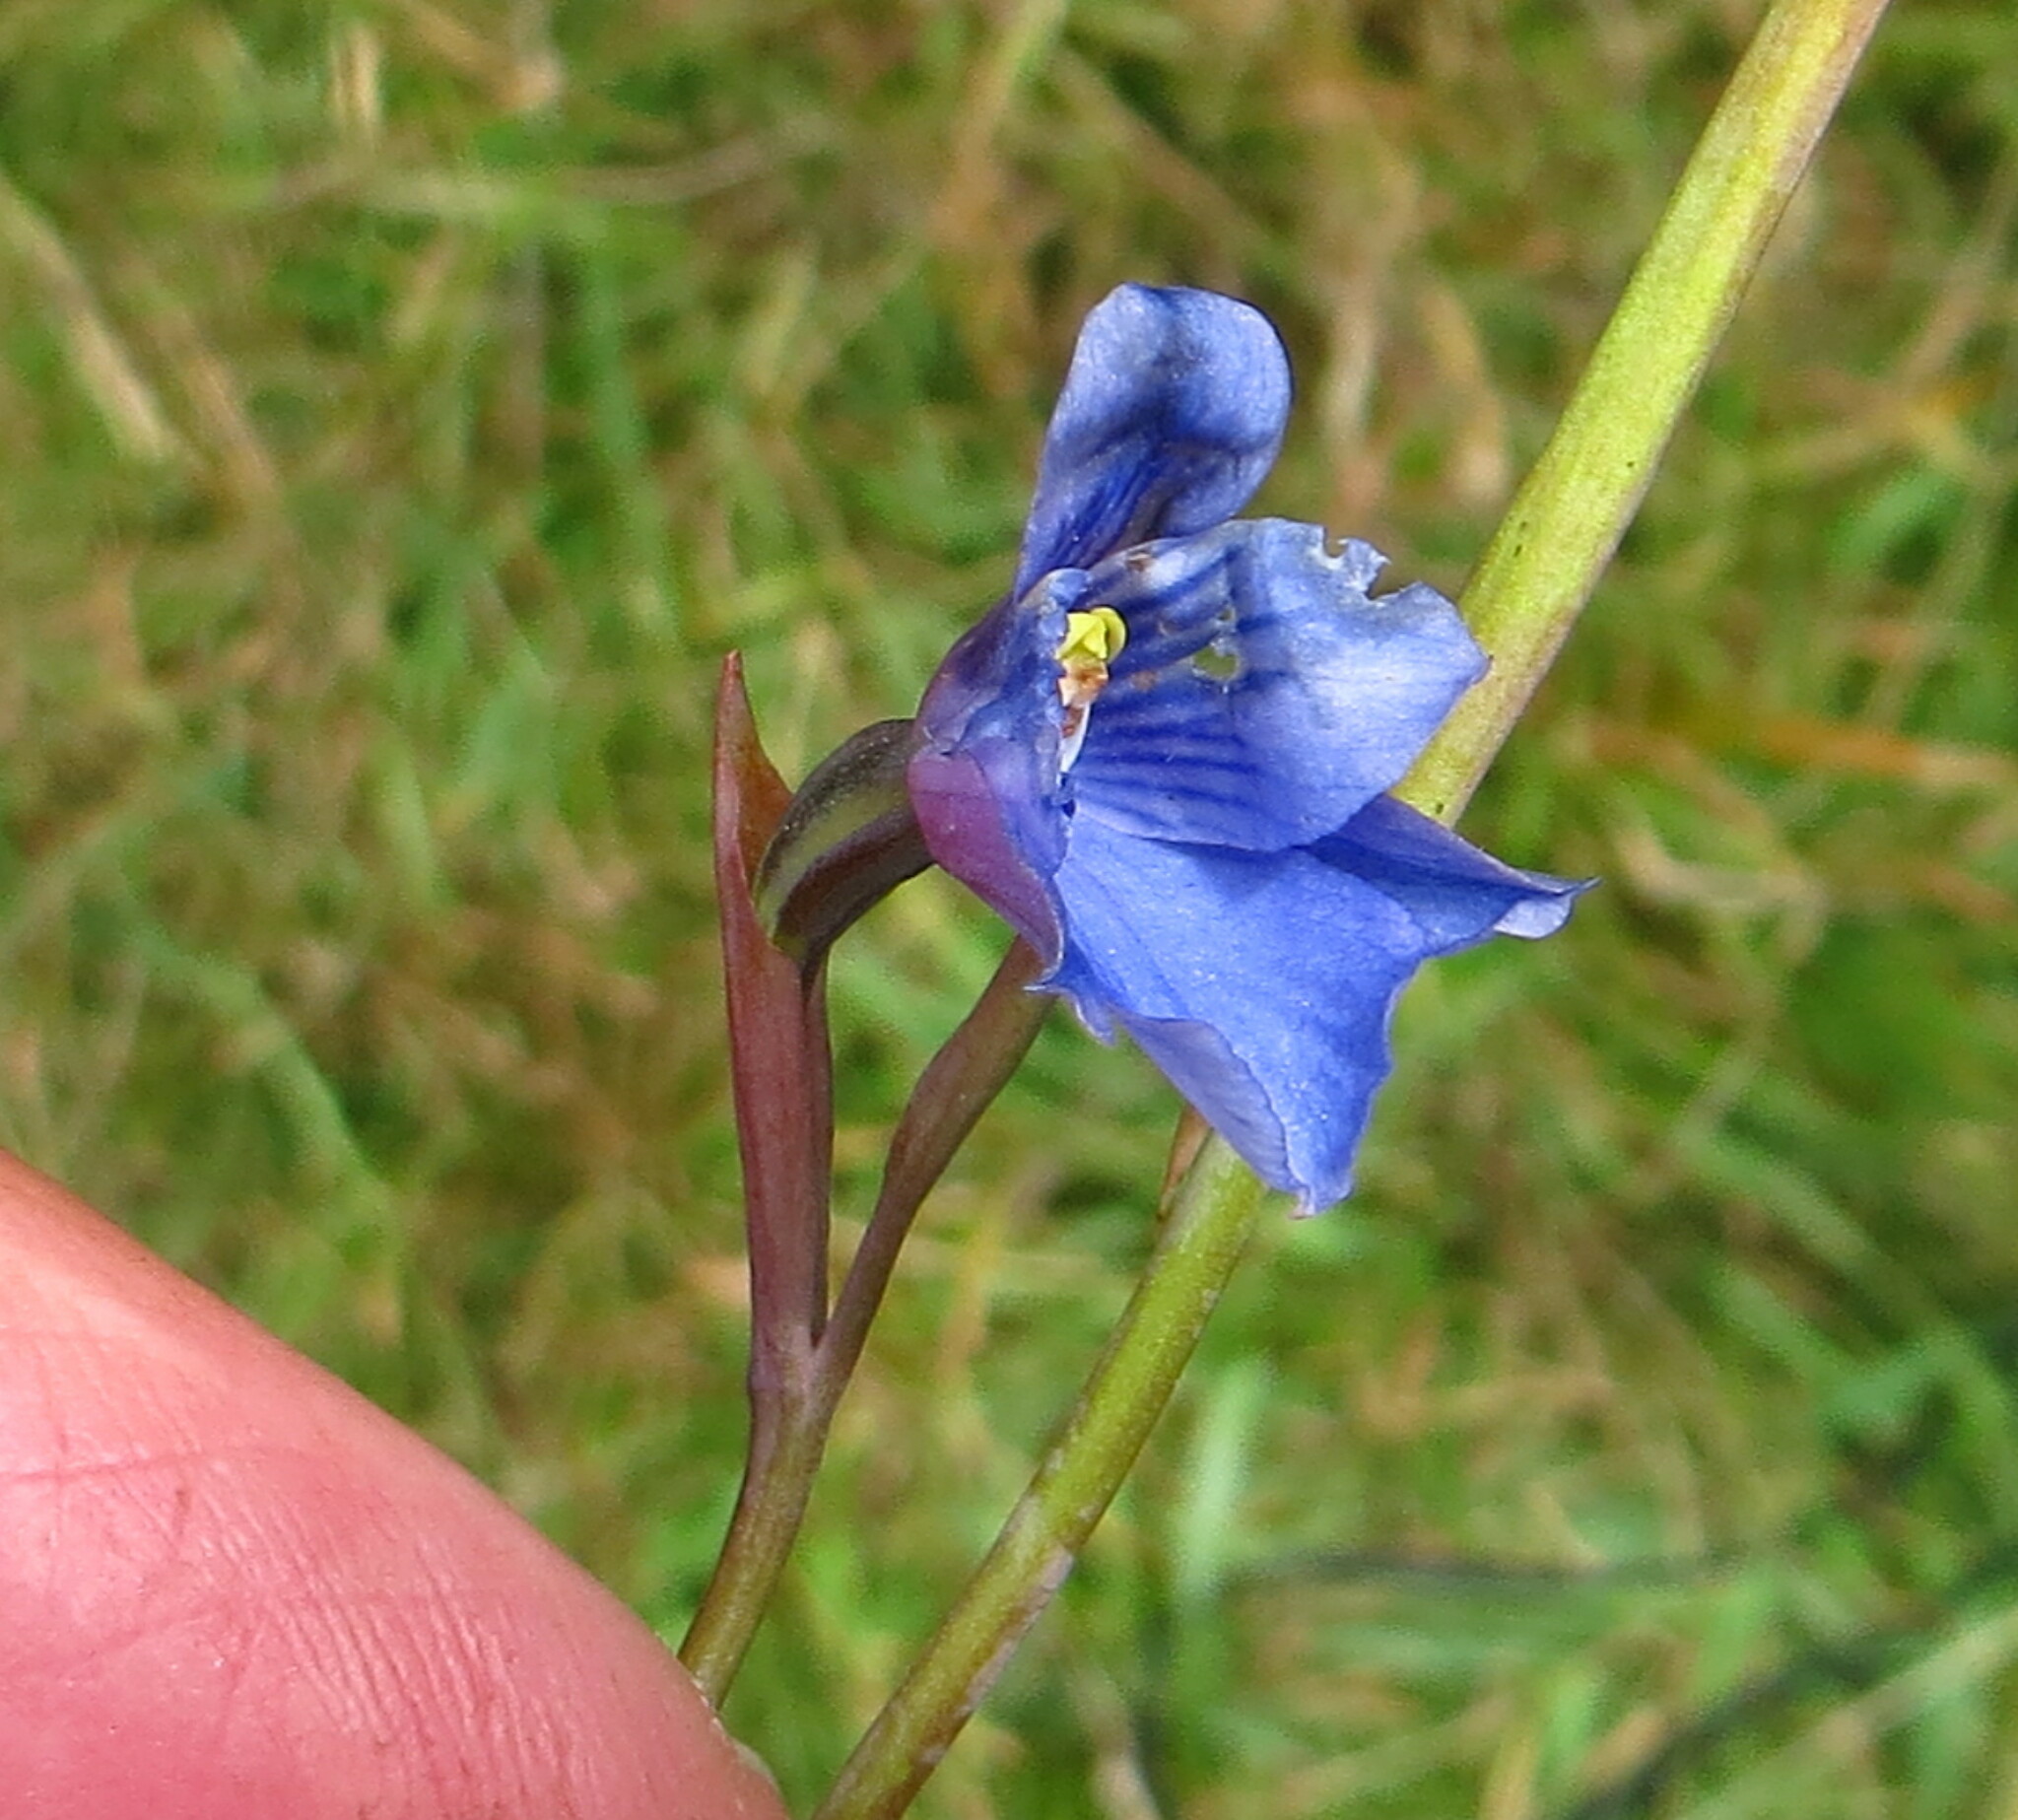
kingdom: Plantae
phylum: Tracheophyta
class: Liliopsida
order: Asparagales
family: Orchidaceae
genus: Thelymitra
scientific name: Thelymitra cyanea
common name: Blue sun-orchid
